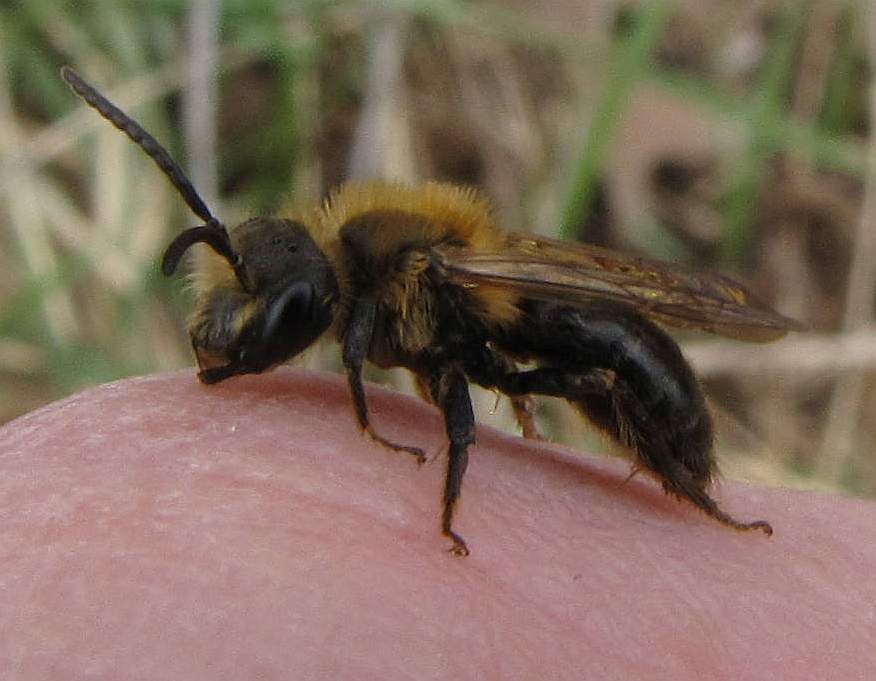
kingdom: Animalia
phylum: Arthropoda
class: Insecta
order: Hymenoptera
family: Andrenidae
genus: Andrena
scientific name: Andrena dunningi
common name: Dunning's miner
